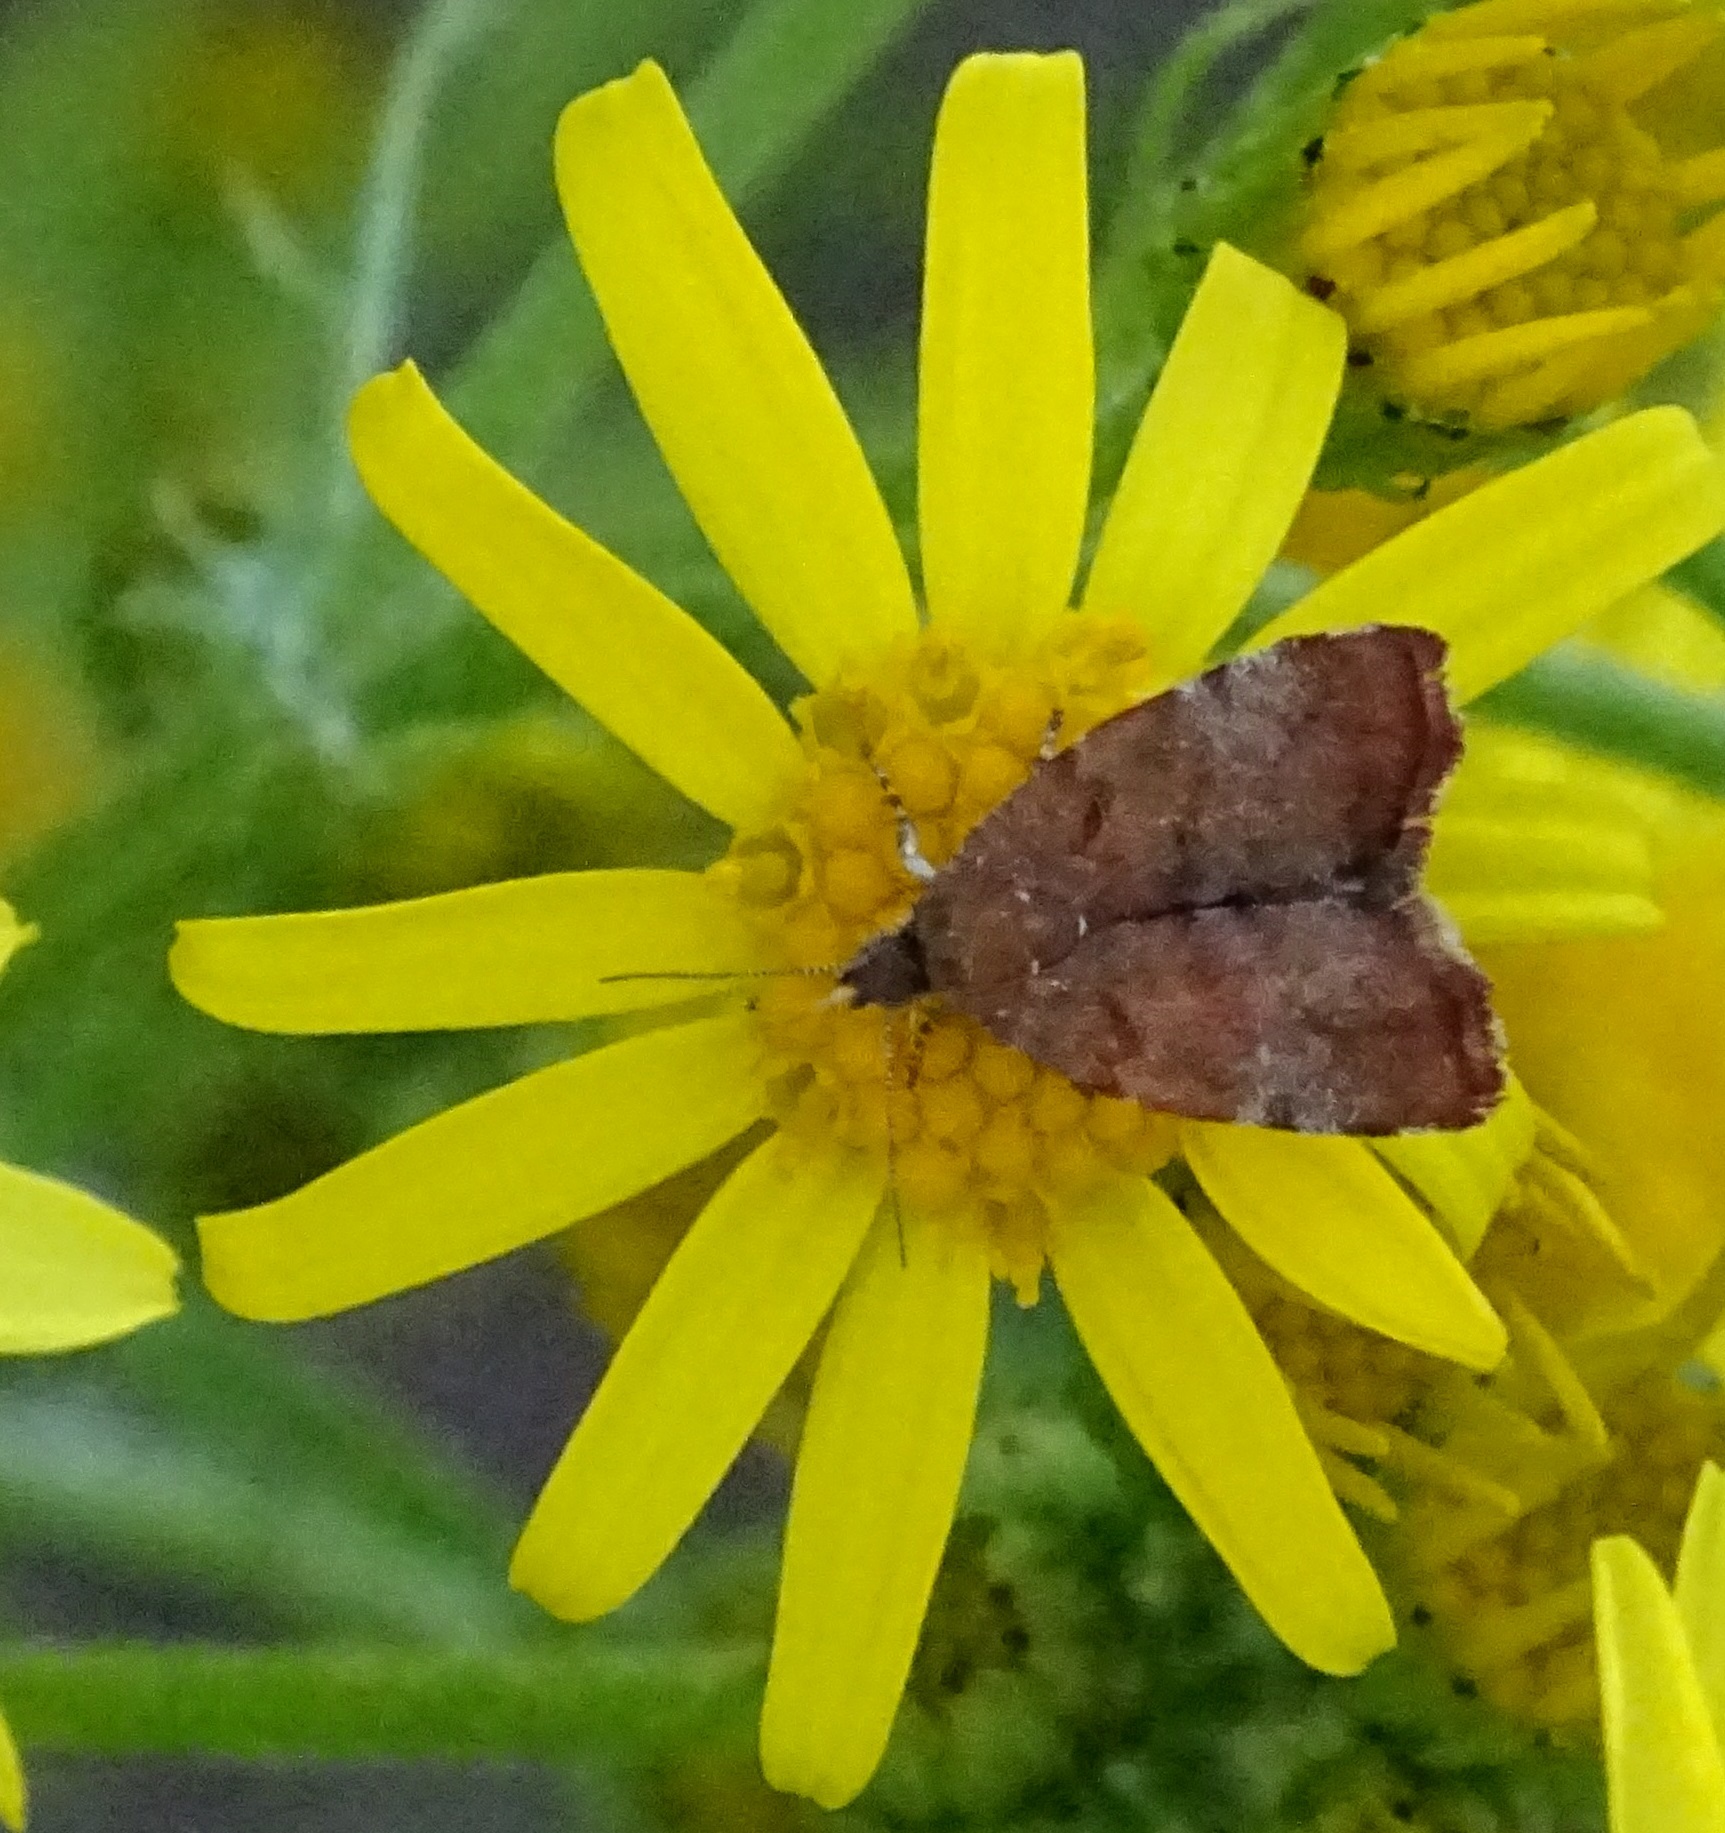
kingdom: Animalia
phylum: Arthropoda
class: Insecta
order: Lepidoptera
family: Choreutidae
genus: Choreutis
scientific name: Choreutis pariana
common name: Apple leaf skeletoniser
